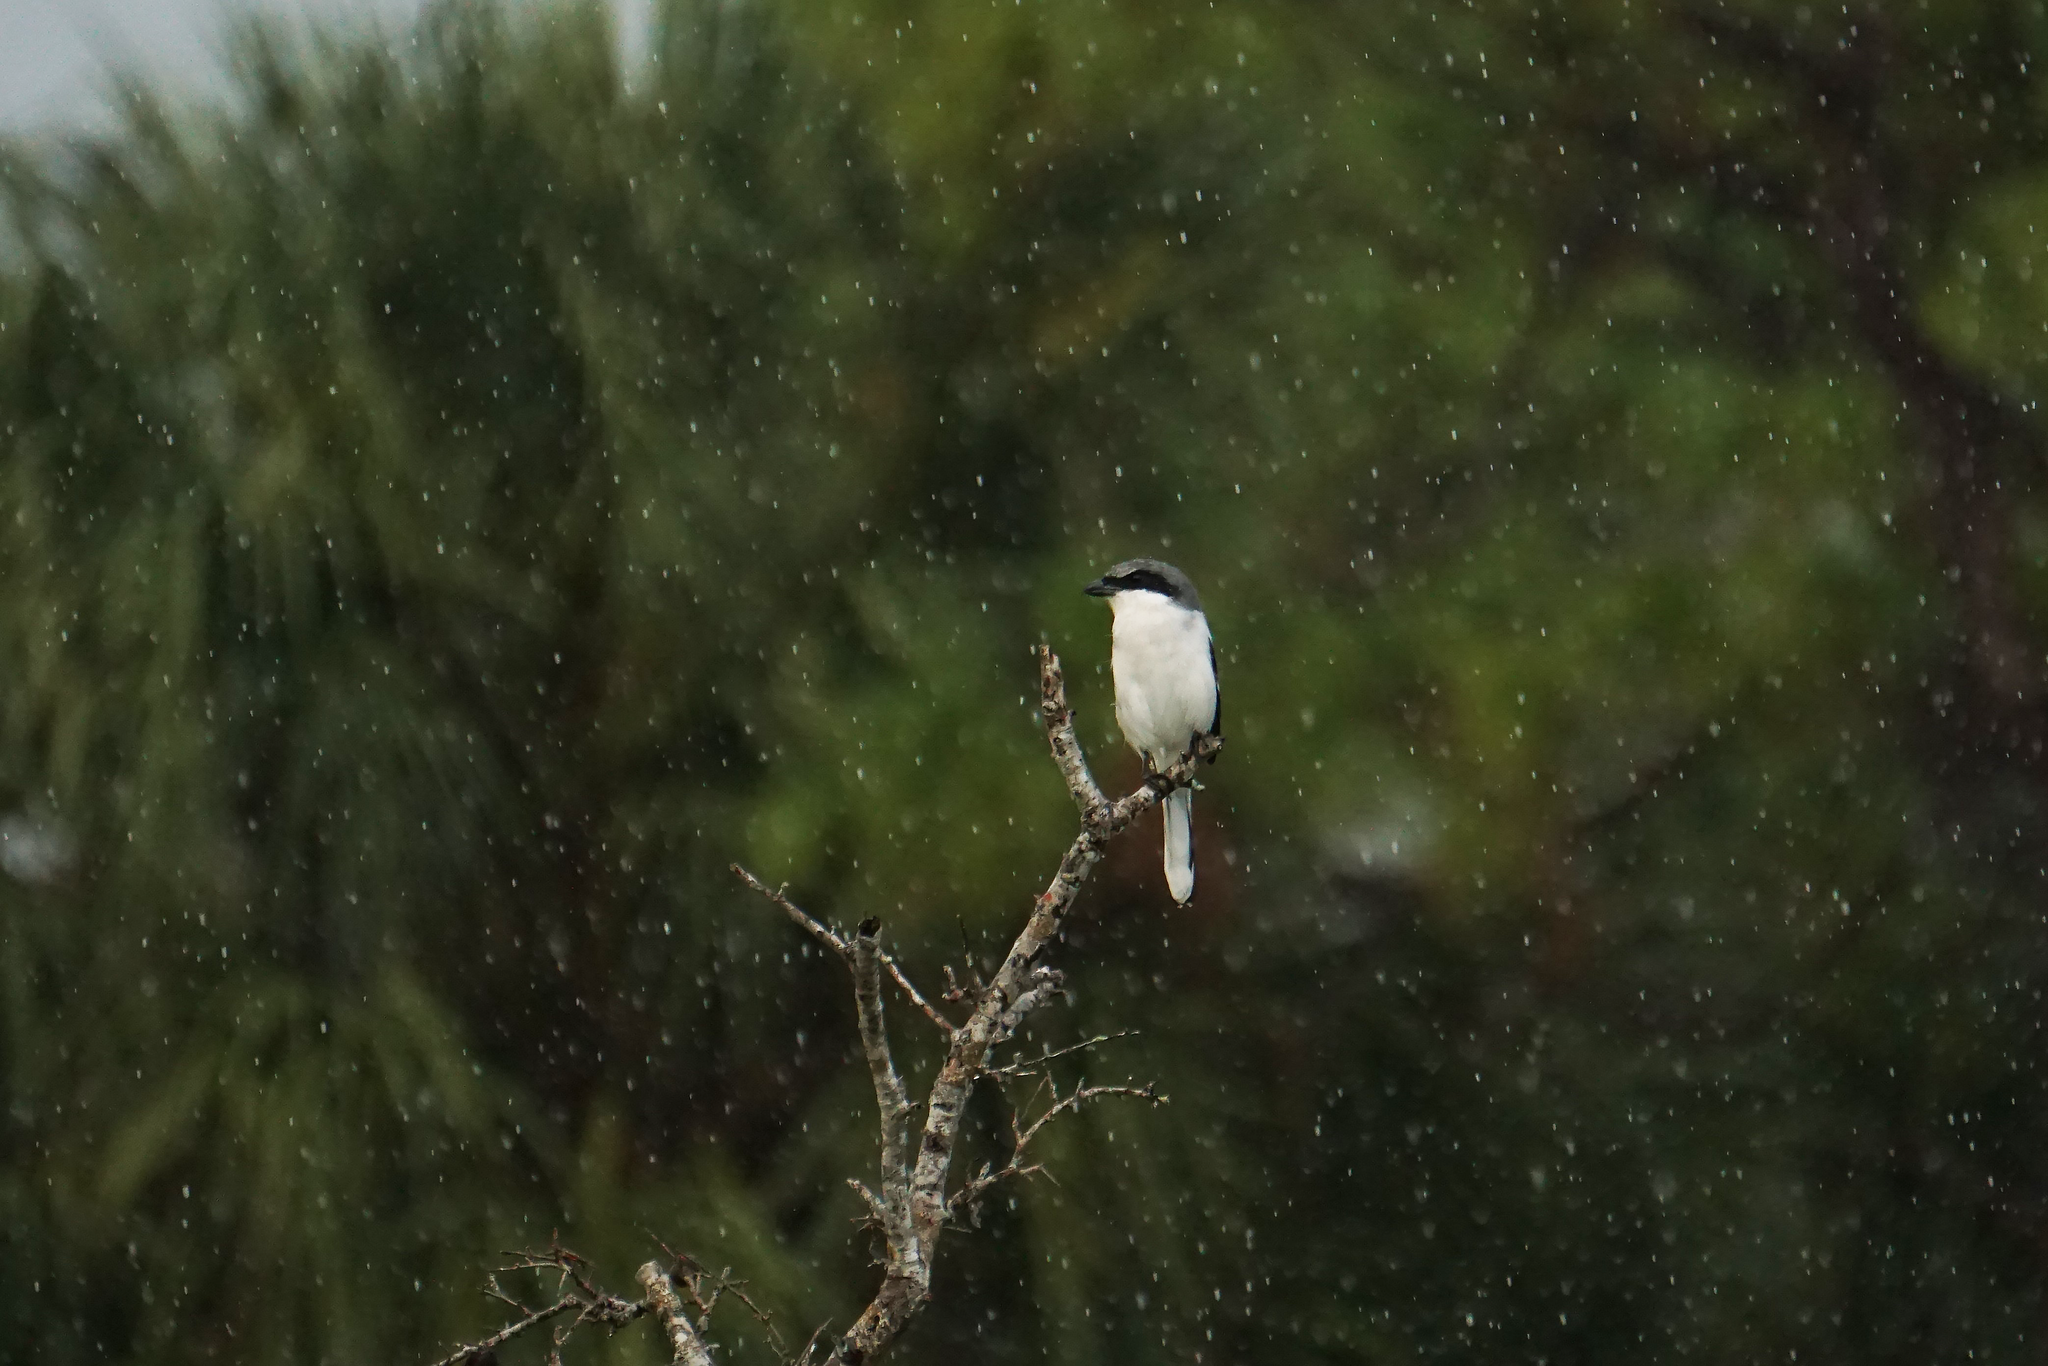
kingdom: Animalia
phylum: Chordata
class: Aves
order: Passeriformes
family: Laniidae
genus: Lanius
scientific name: Lanius ludovicianus
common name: Loggerhead shrike
